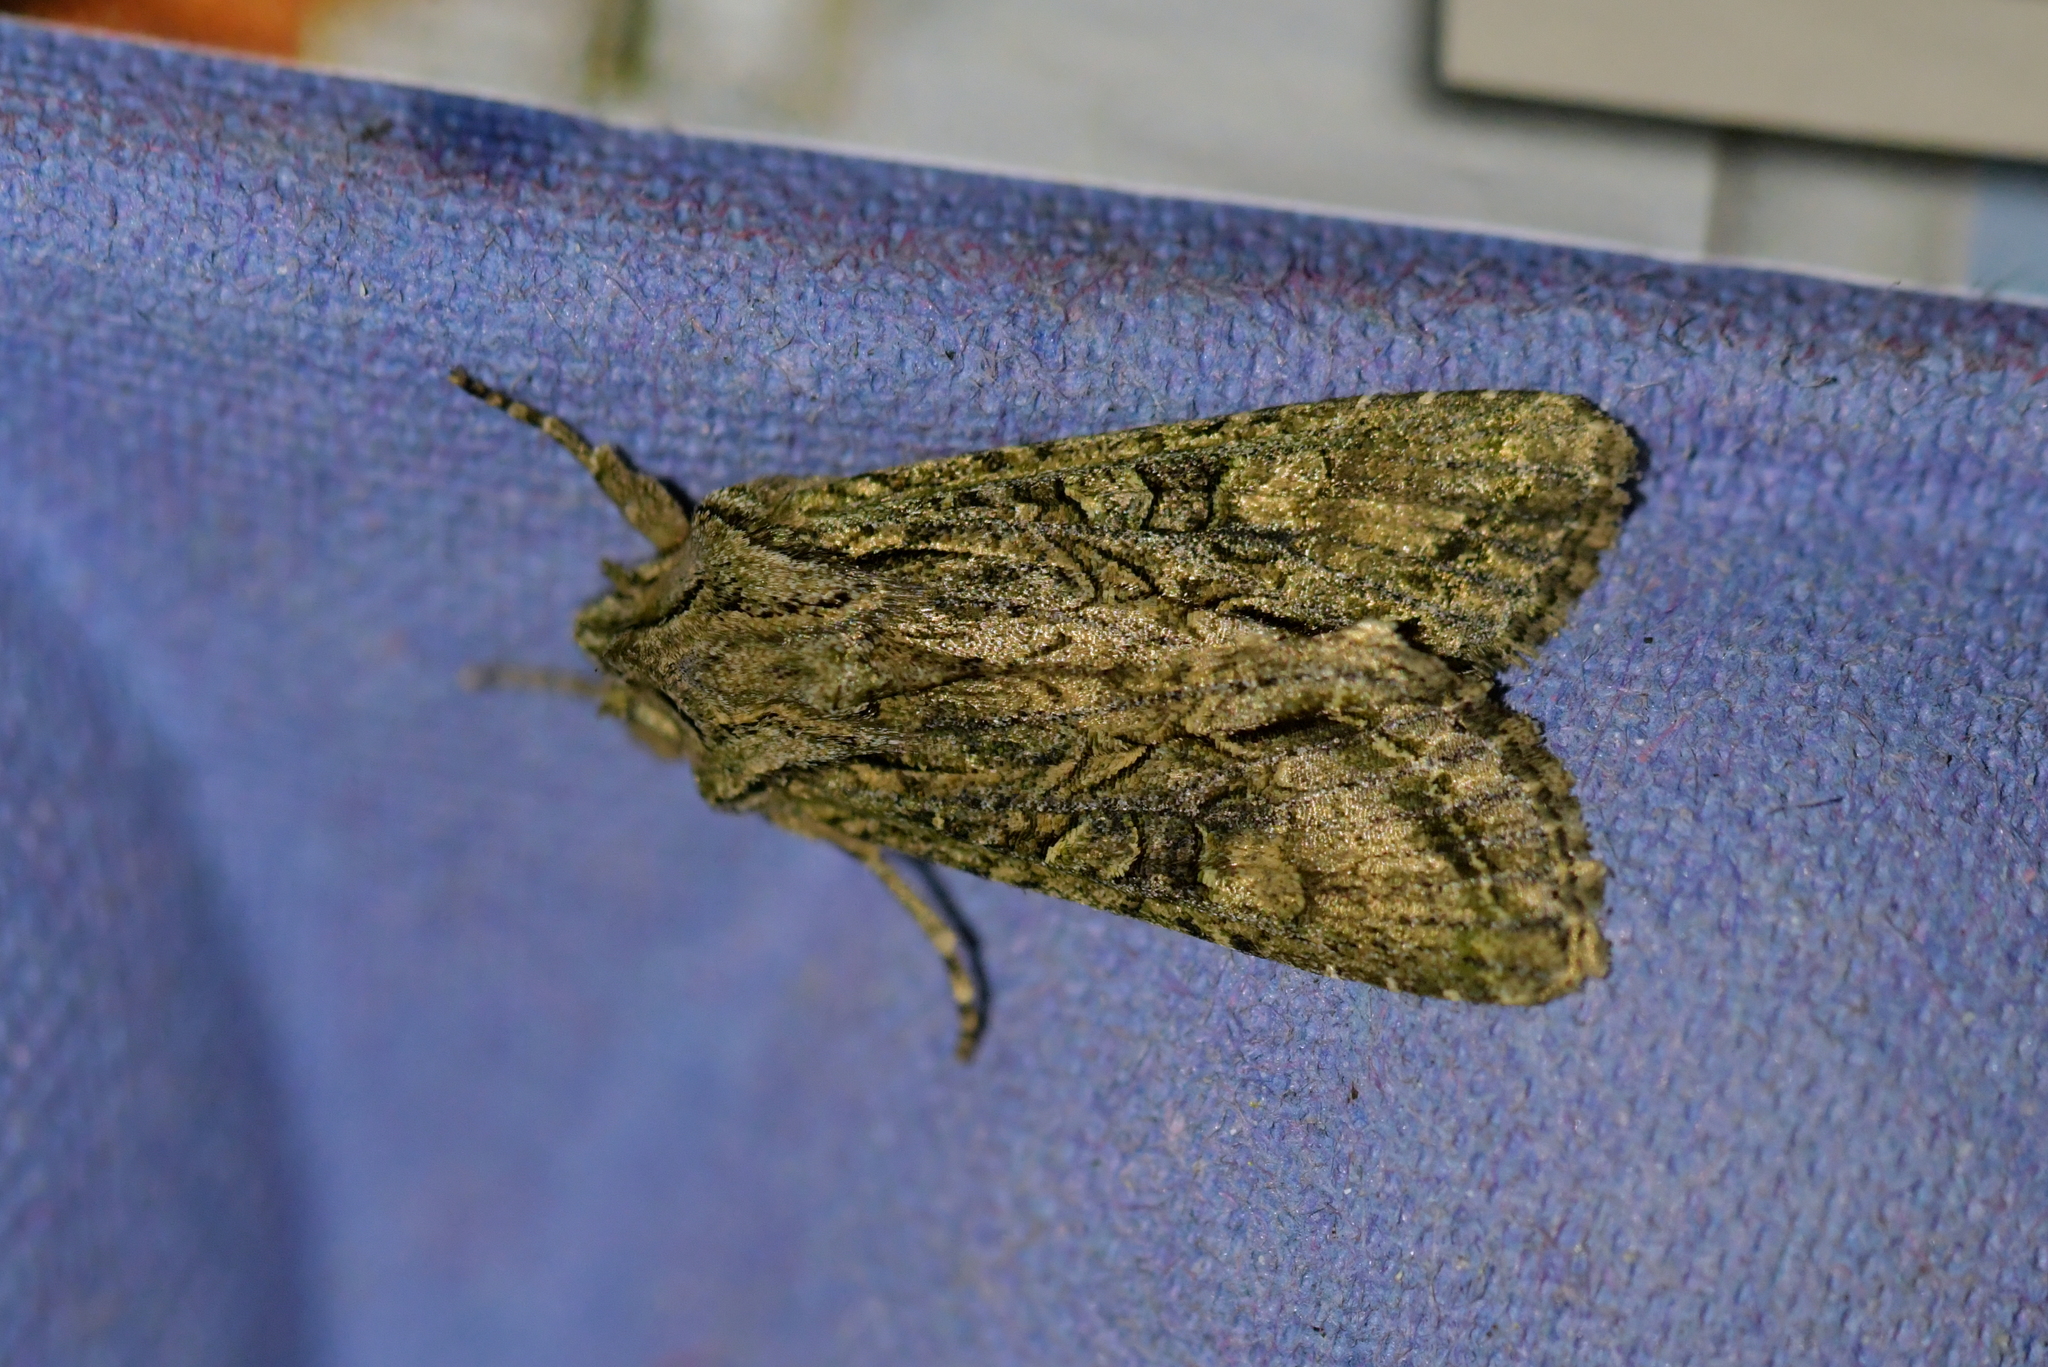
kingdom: Animalia
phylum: Arthropoda
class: Insecta
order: Lepidoptera
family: Noctuidae
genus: Ichneutica
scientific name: Ichneutica mutans
